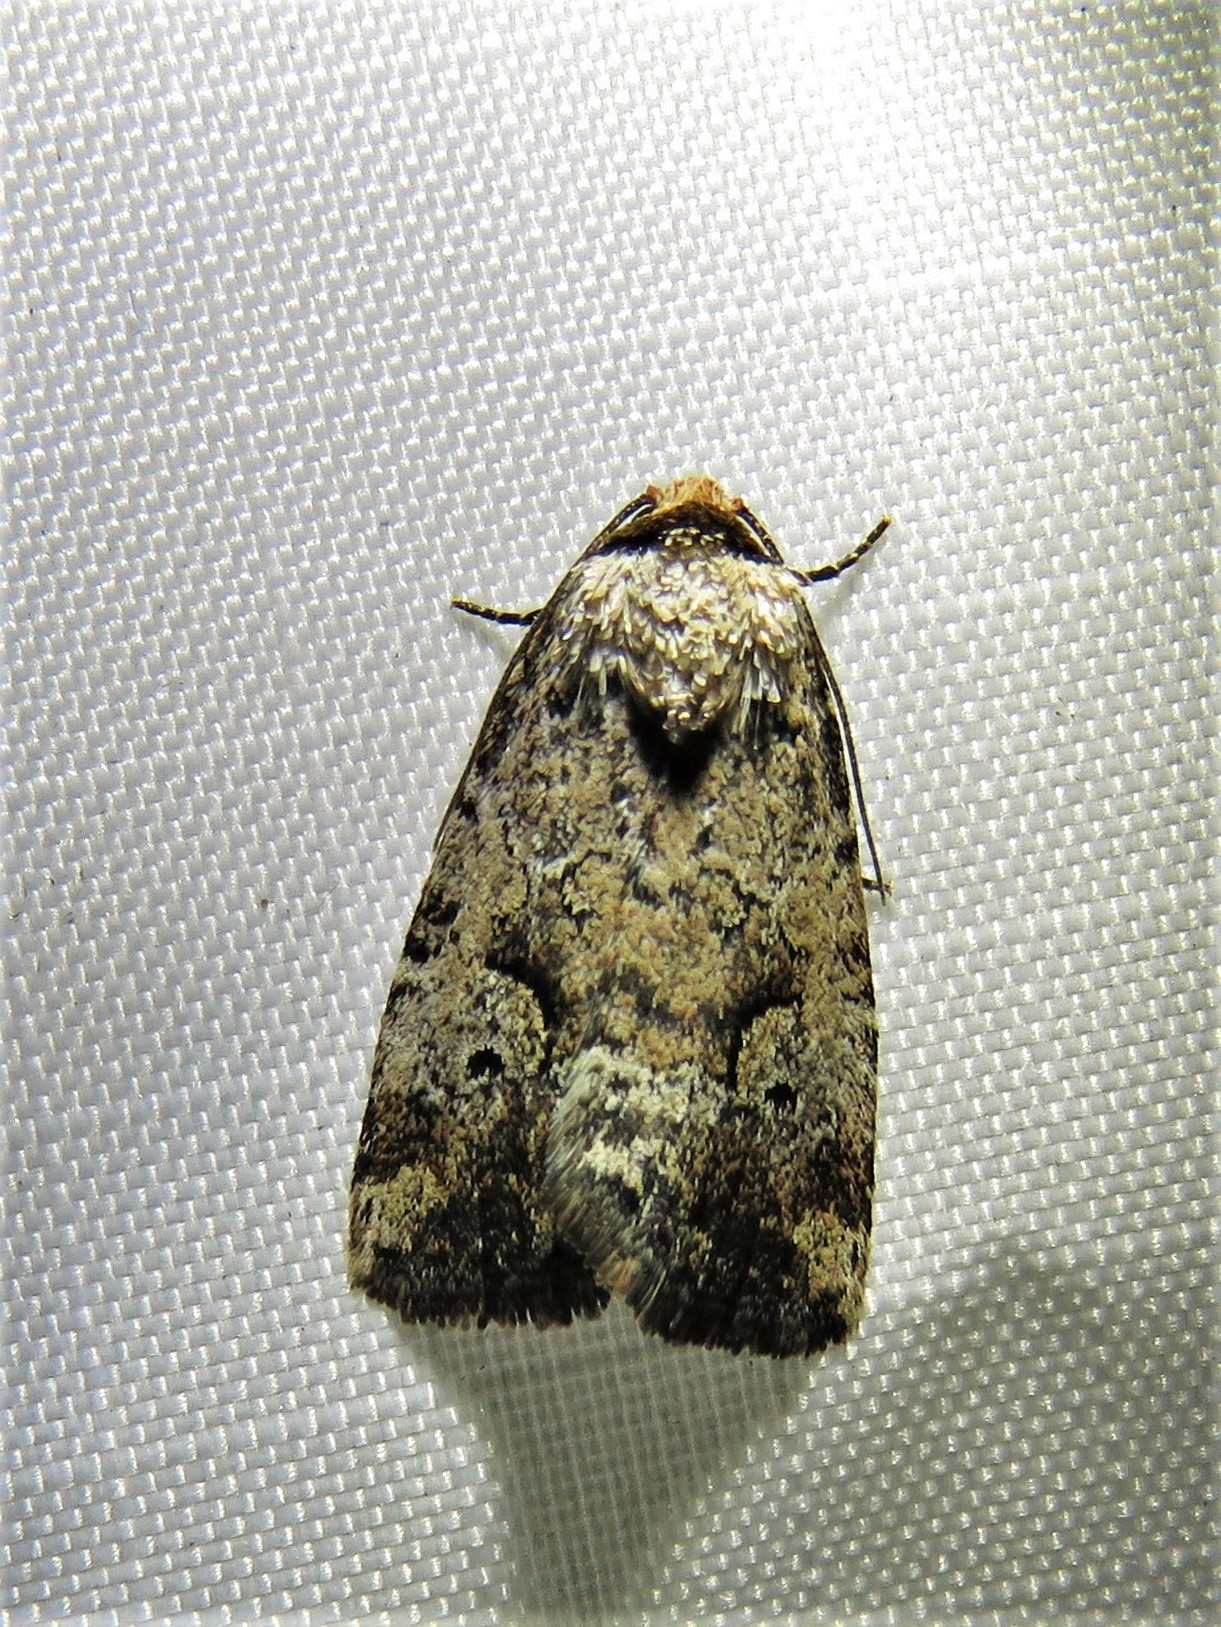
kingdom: Animalia
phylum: Arthropoda
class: Insecta
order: Lepidoptera
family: Noctuidae
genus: Elaphria
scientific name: Elaphria festivoides
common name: Festive midget
